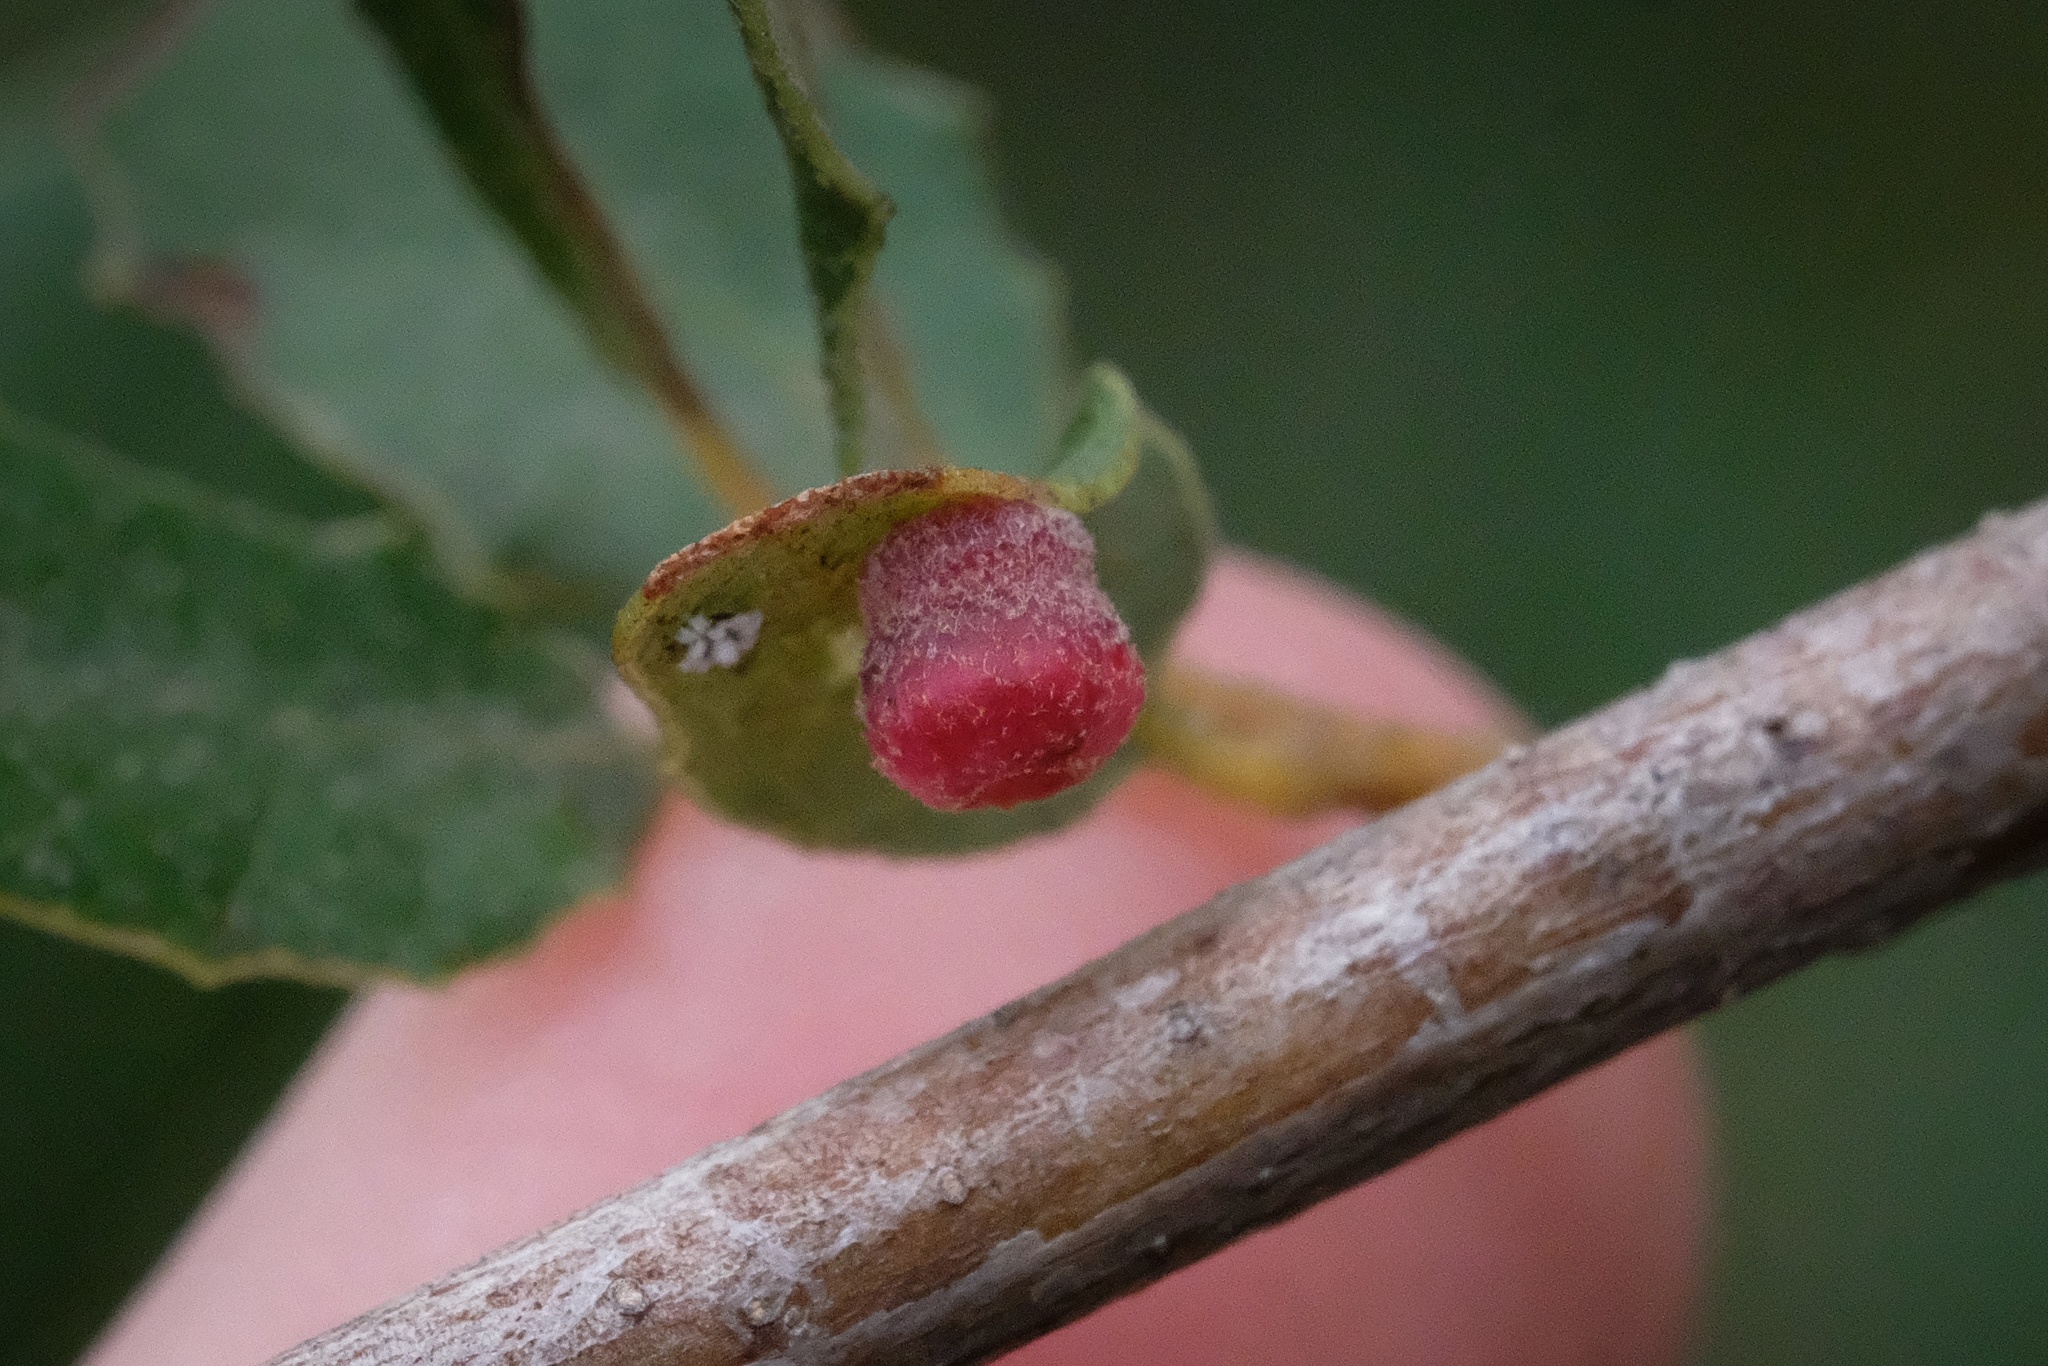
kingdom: Animalia
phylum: Arthropoda
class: Insecta
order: Hymenoptera
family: Cynipidae
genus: Phylloteras
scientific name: Phylloteras
